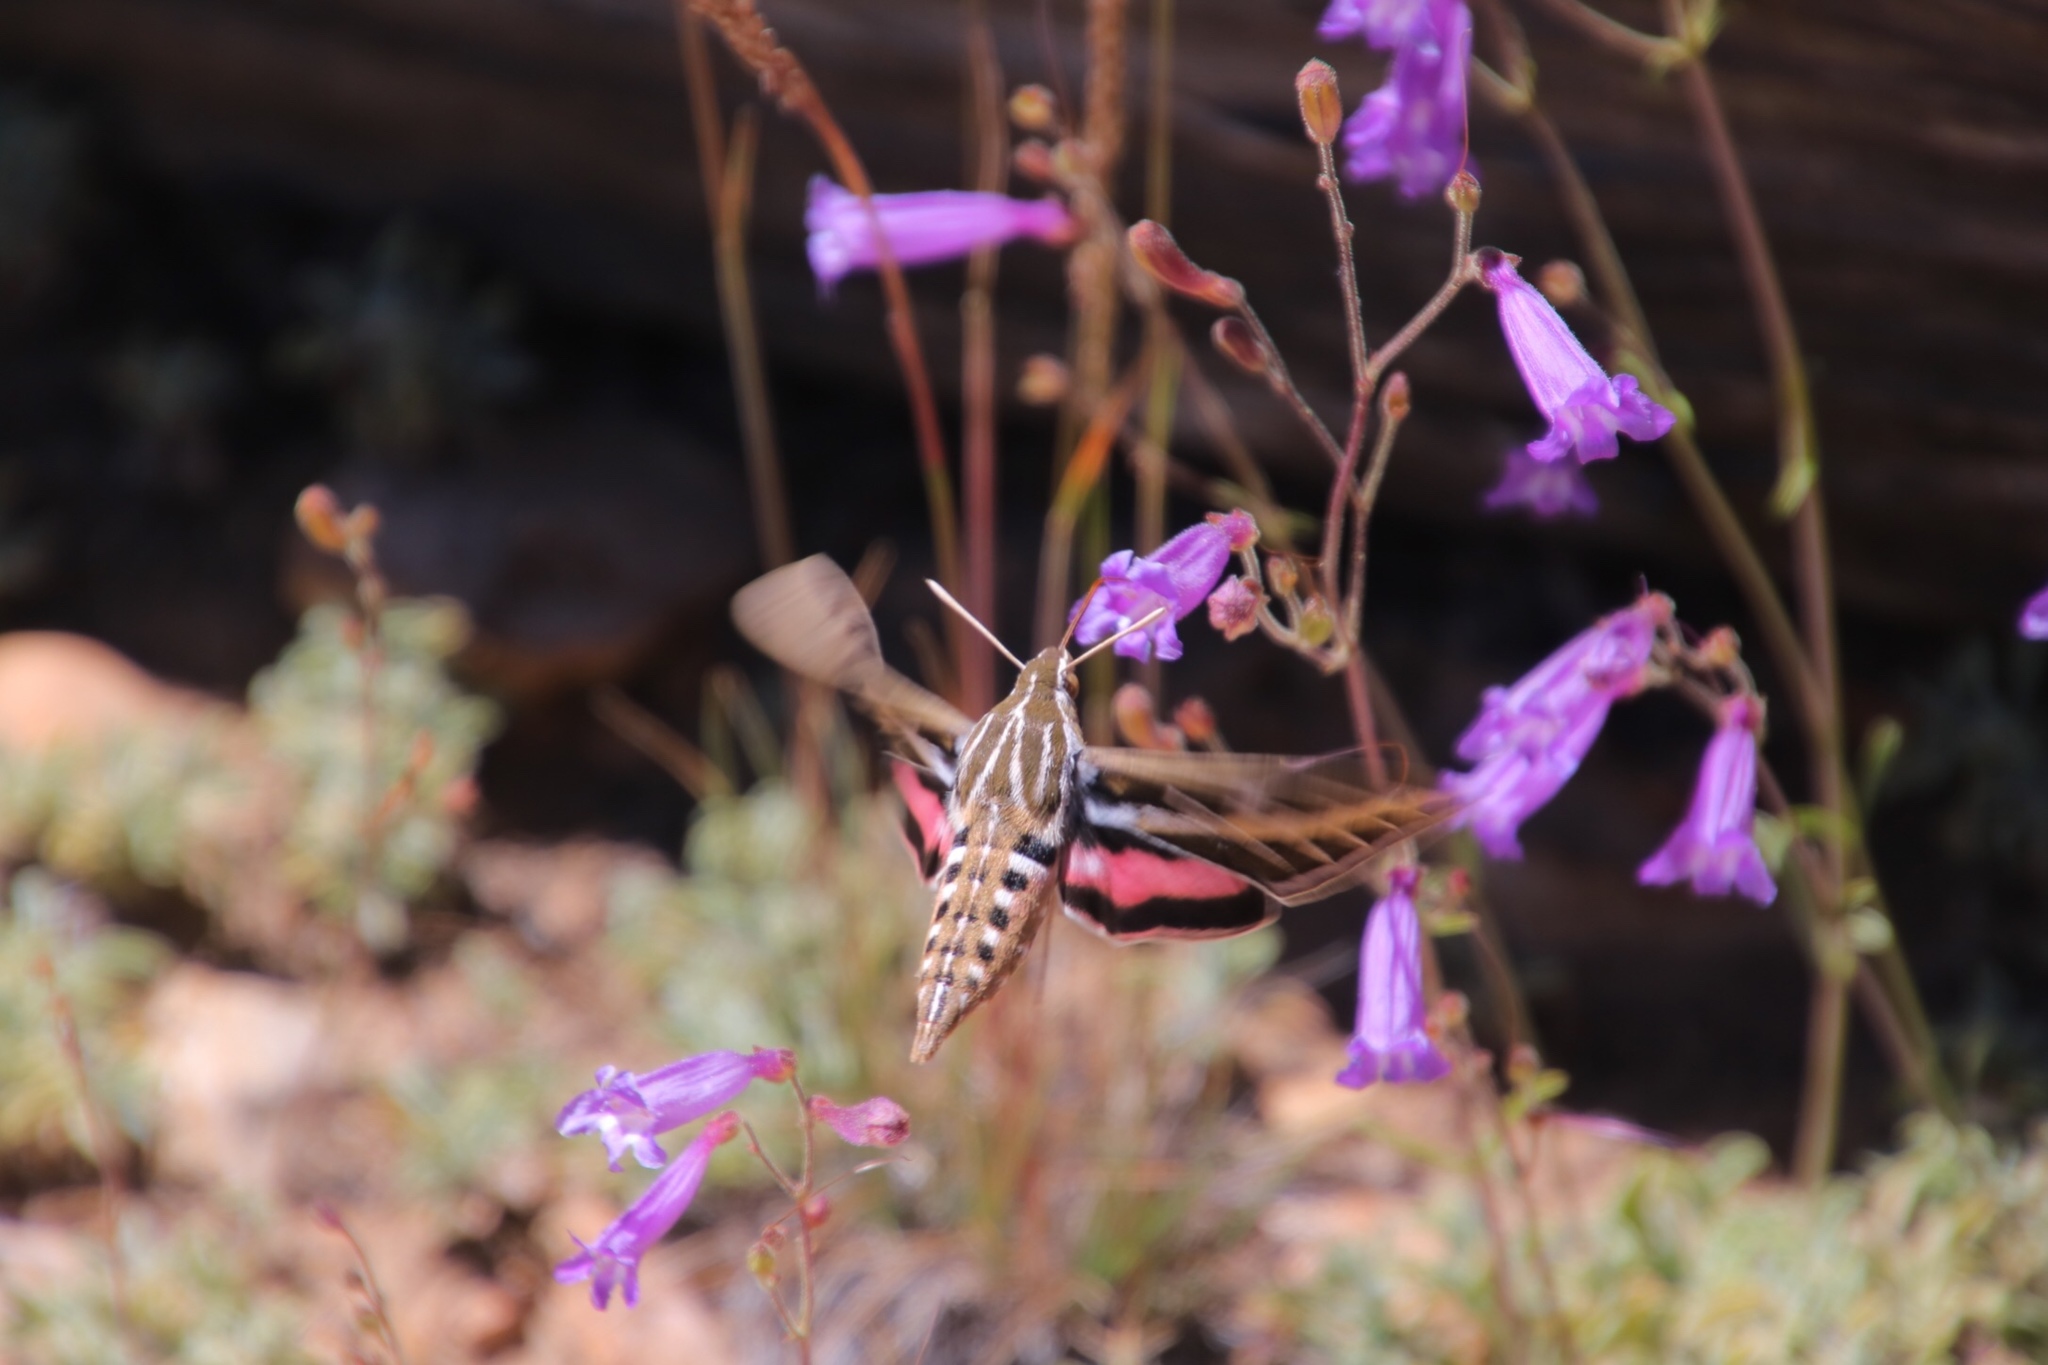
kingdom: Animalia
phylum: Arthropoda
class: Insecta
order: Lepidoptera
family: Sphingidae
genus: Hyles
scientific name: Hyles lineata
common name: White-lined sphinx
